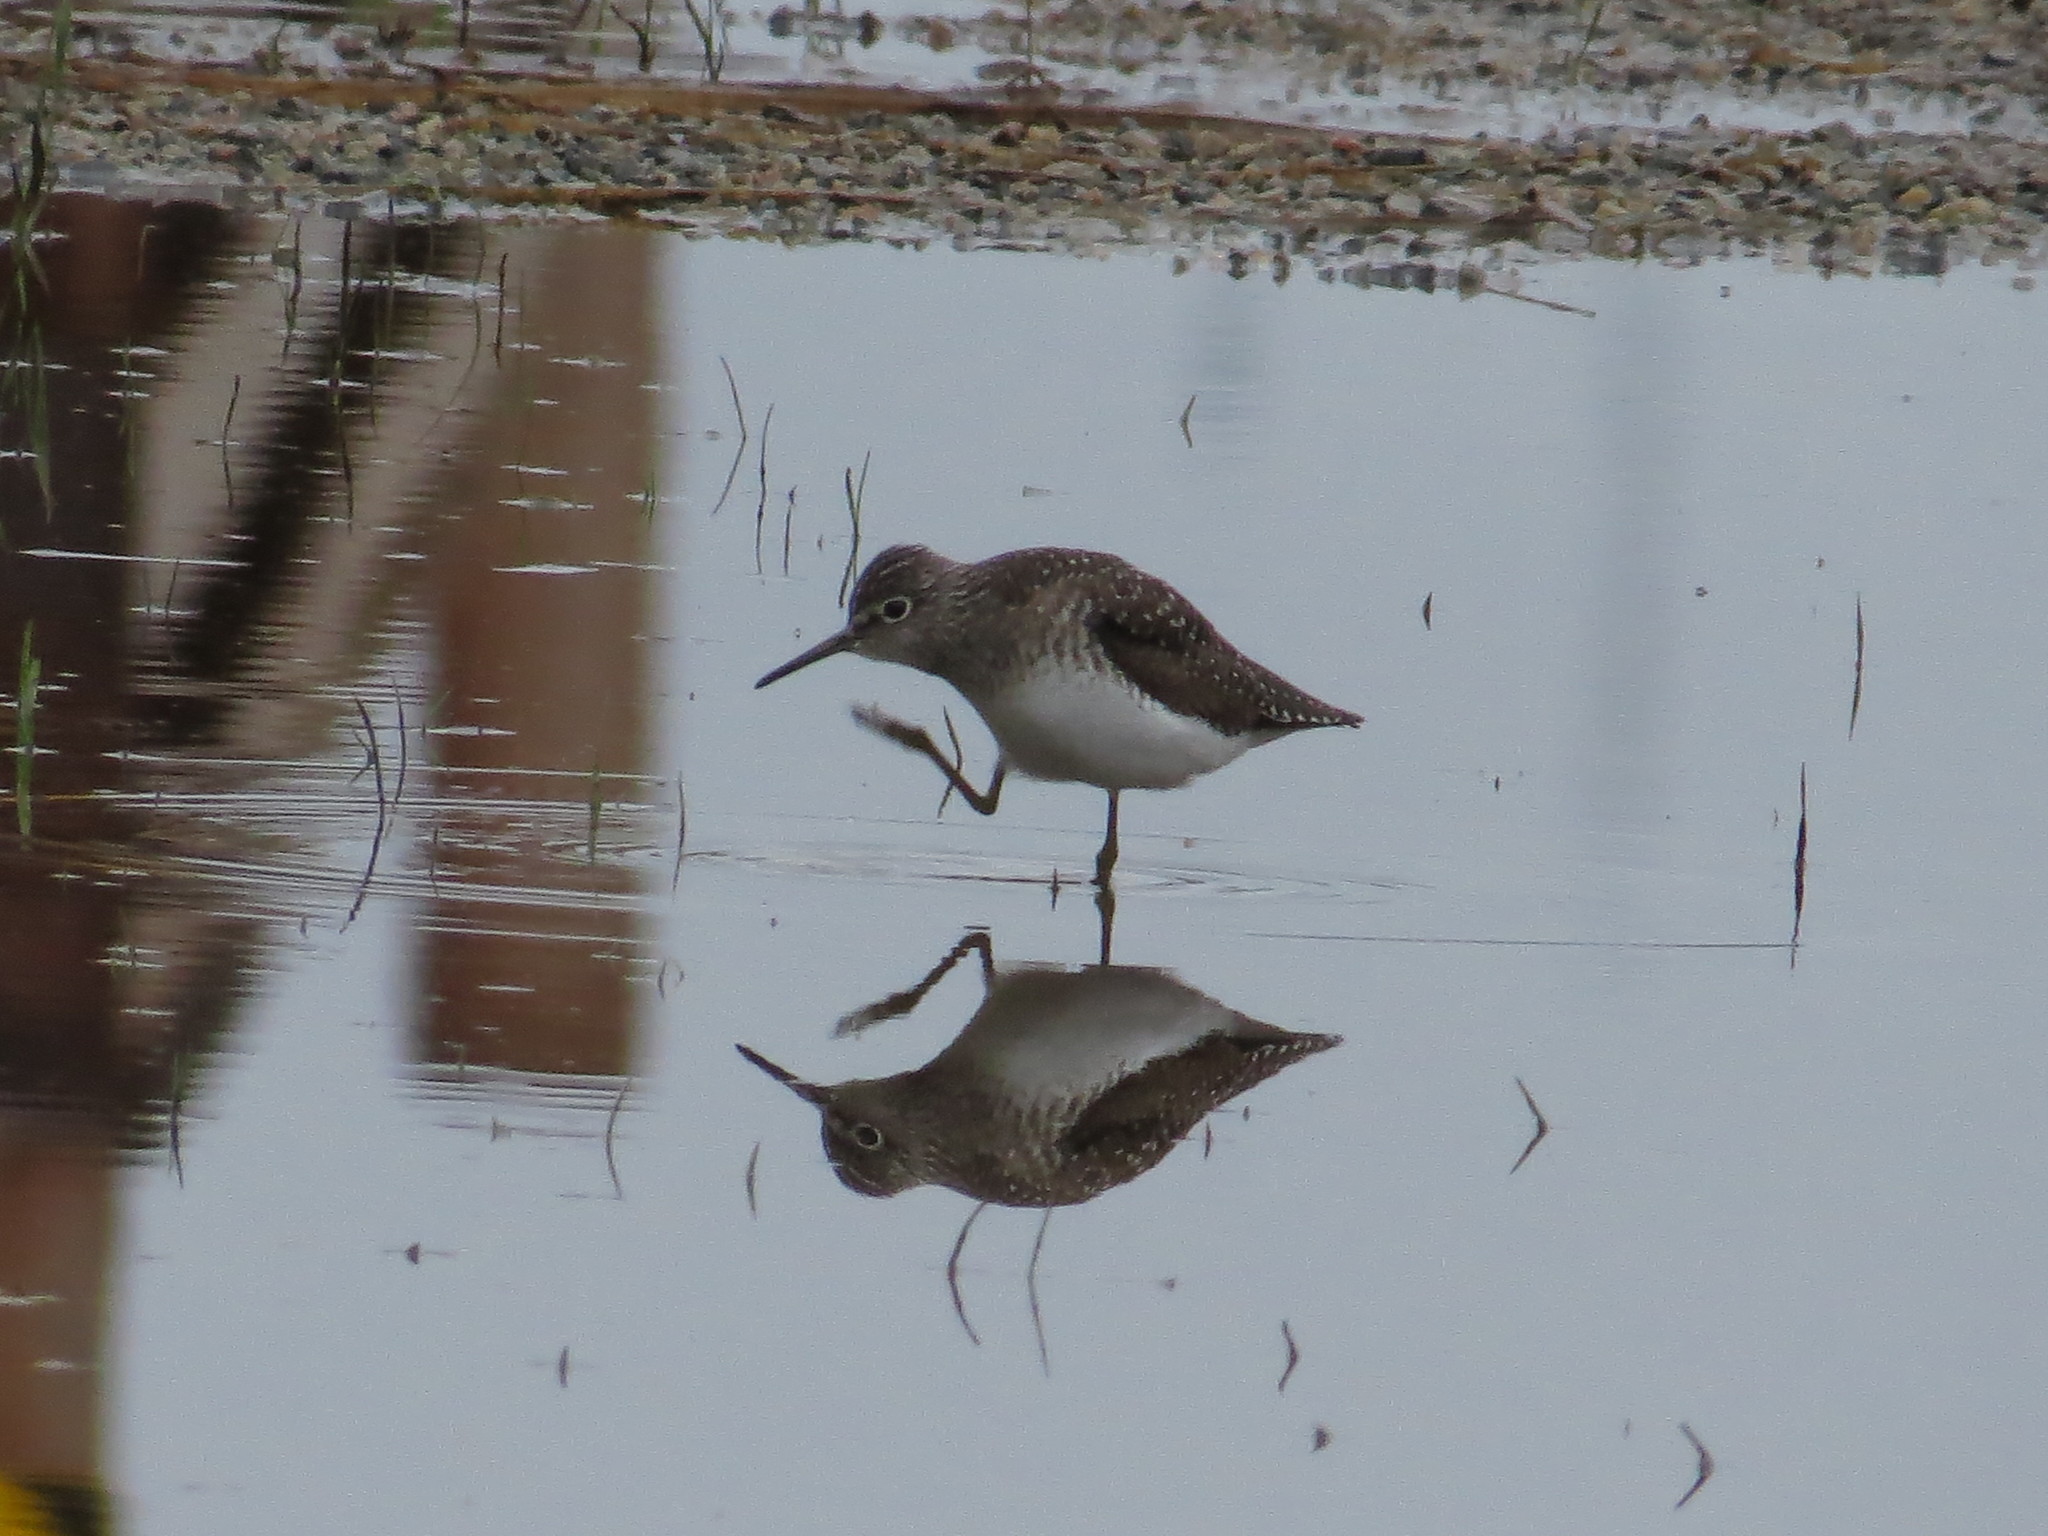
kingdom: Animalia
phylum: Chordata
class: Aves
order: Charadriiformes
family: Scolopacidae
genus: Tringa
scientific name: Tringa solitaria
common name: Solitary sandpiper
